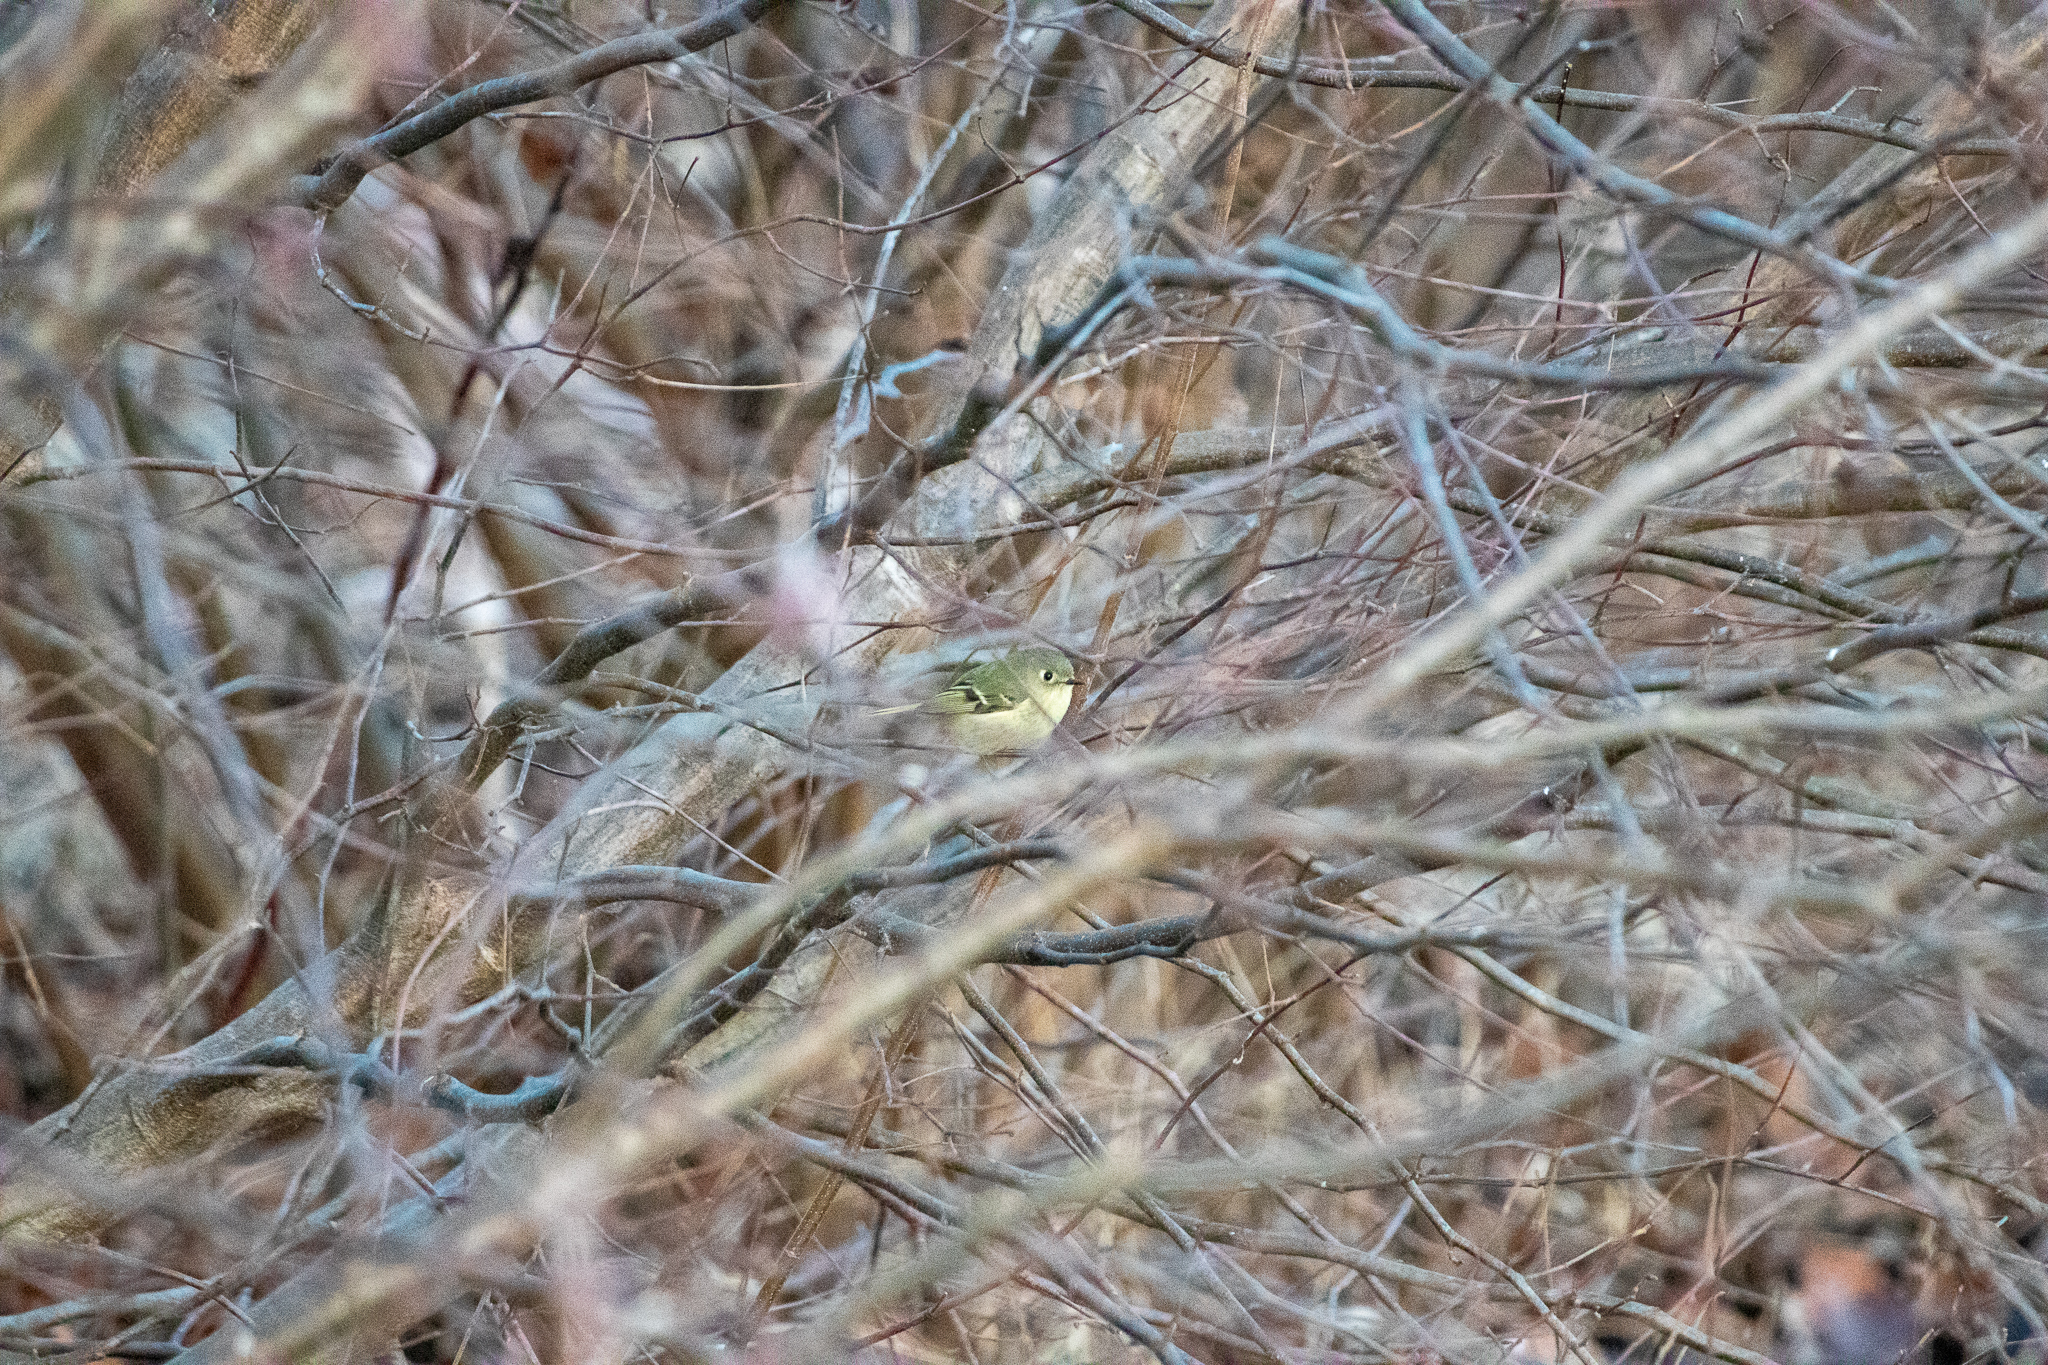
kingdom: Animalia
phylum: Chordata
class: Aves
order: Passeriformes
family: Regulidae
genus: Regulus
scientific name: Regulus calendula
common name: Ruby-crowned kinglet
